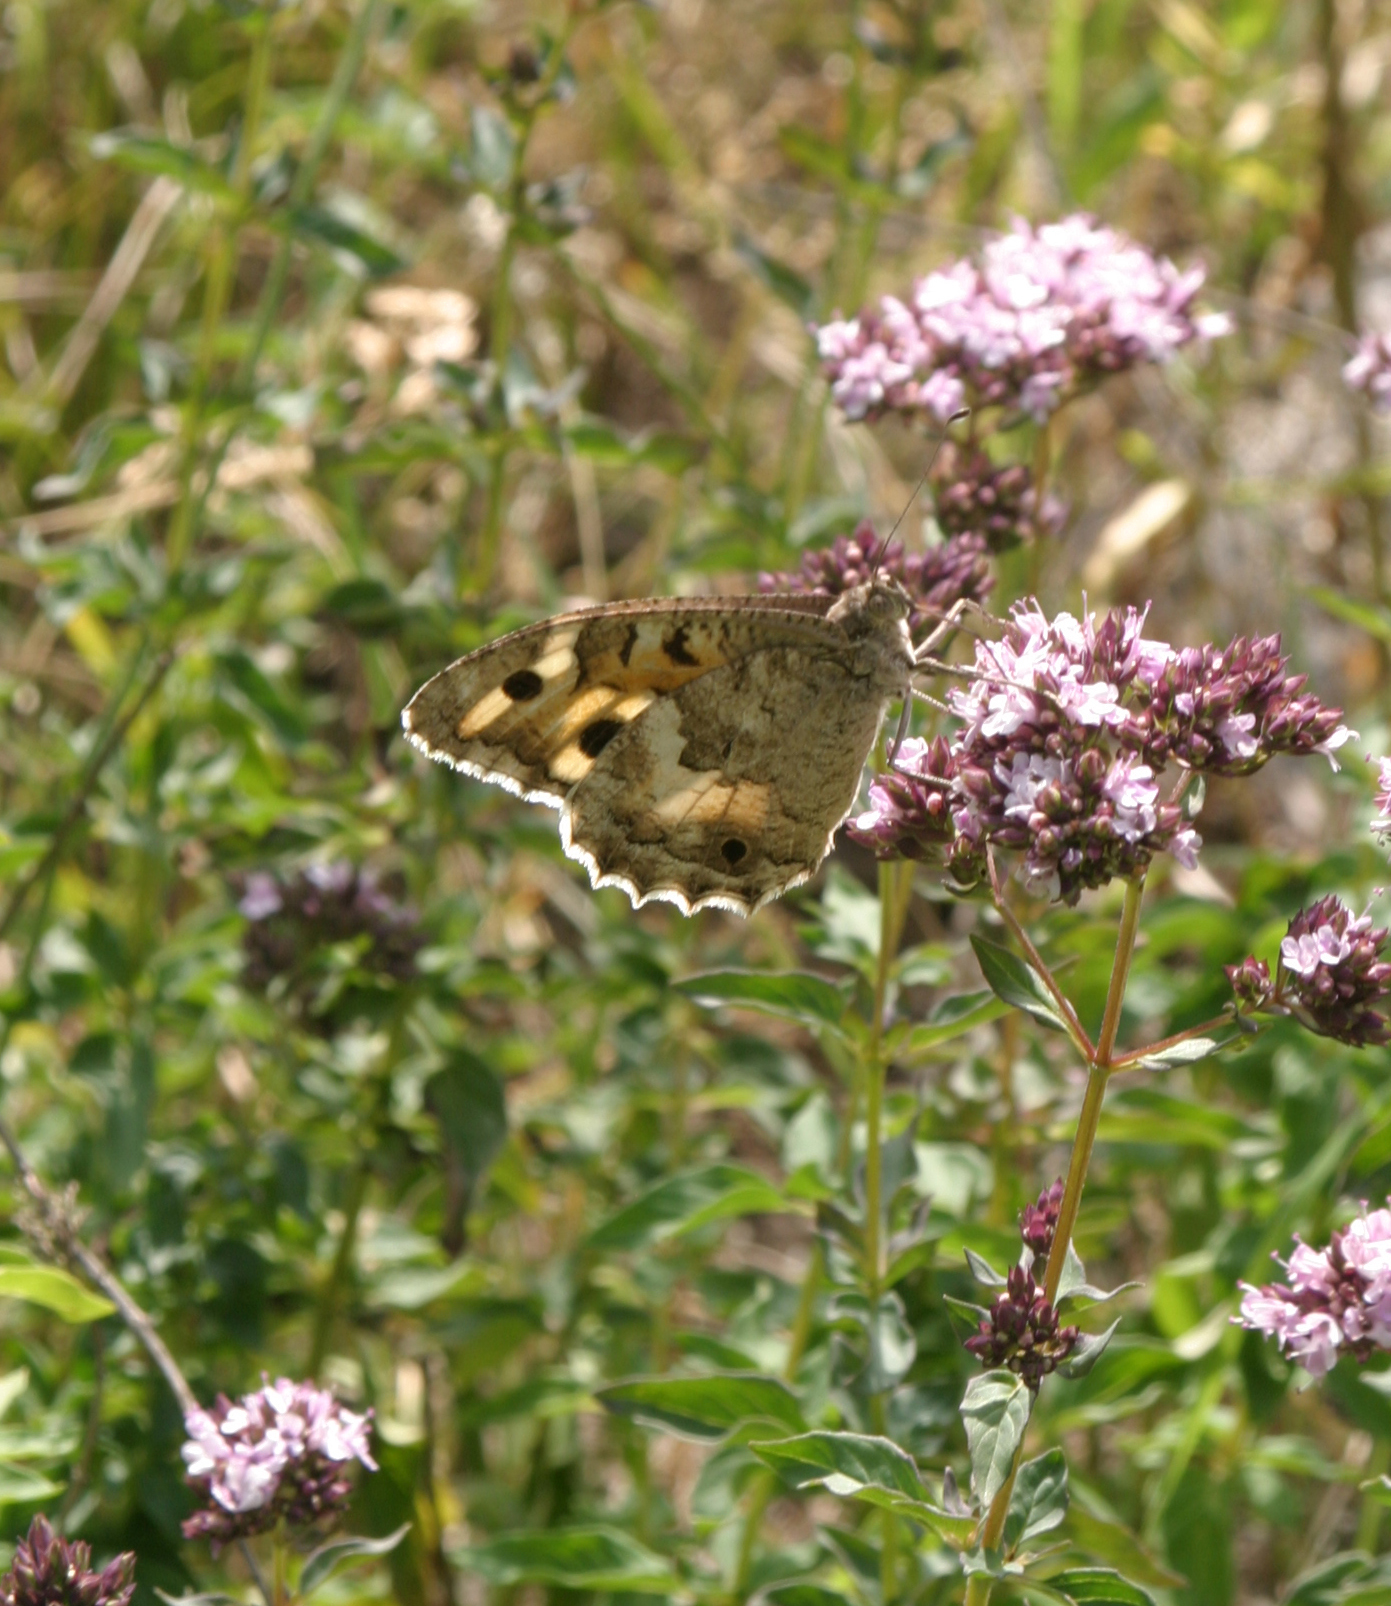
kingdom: Animalia
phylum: Arthropoda
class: Insecta
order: Lepidoptera
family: Nymphalidae
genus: Satyrus
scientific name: Satyrus Chazara enervata
